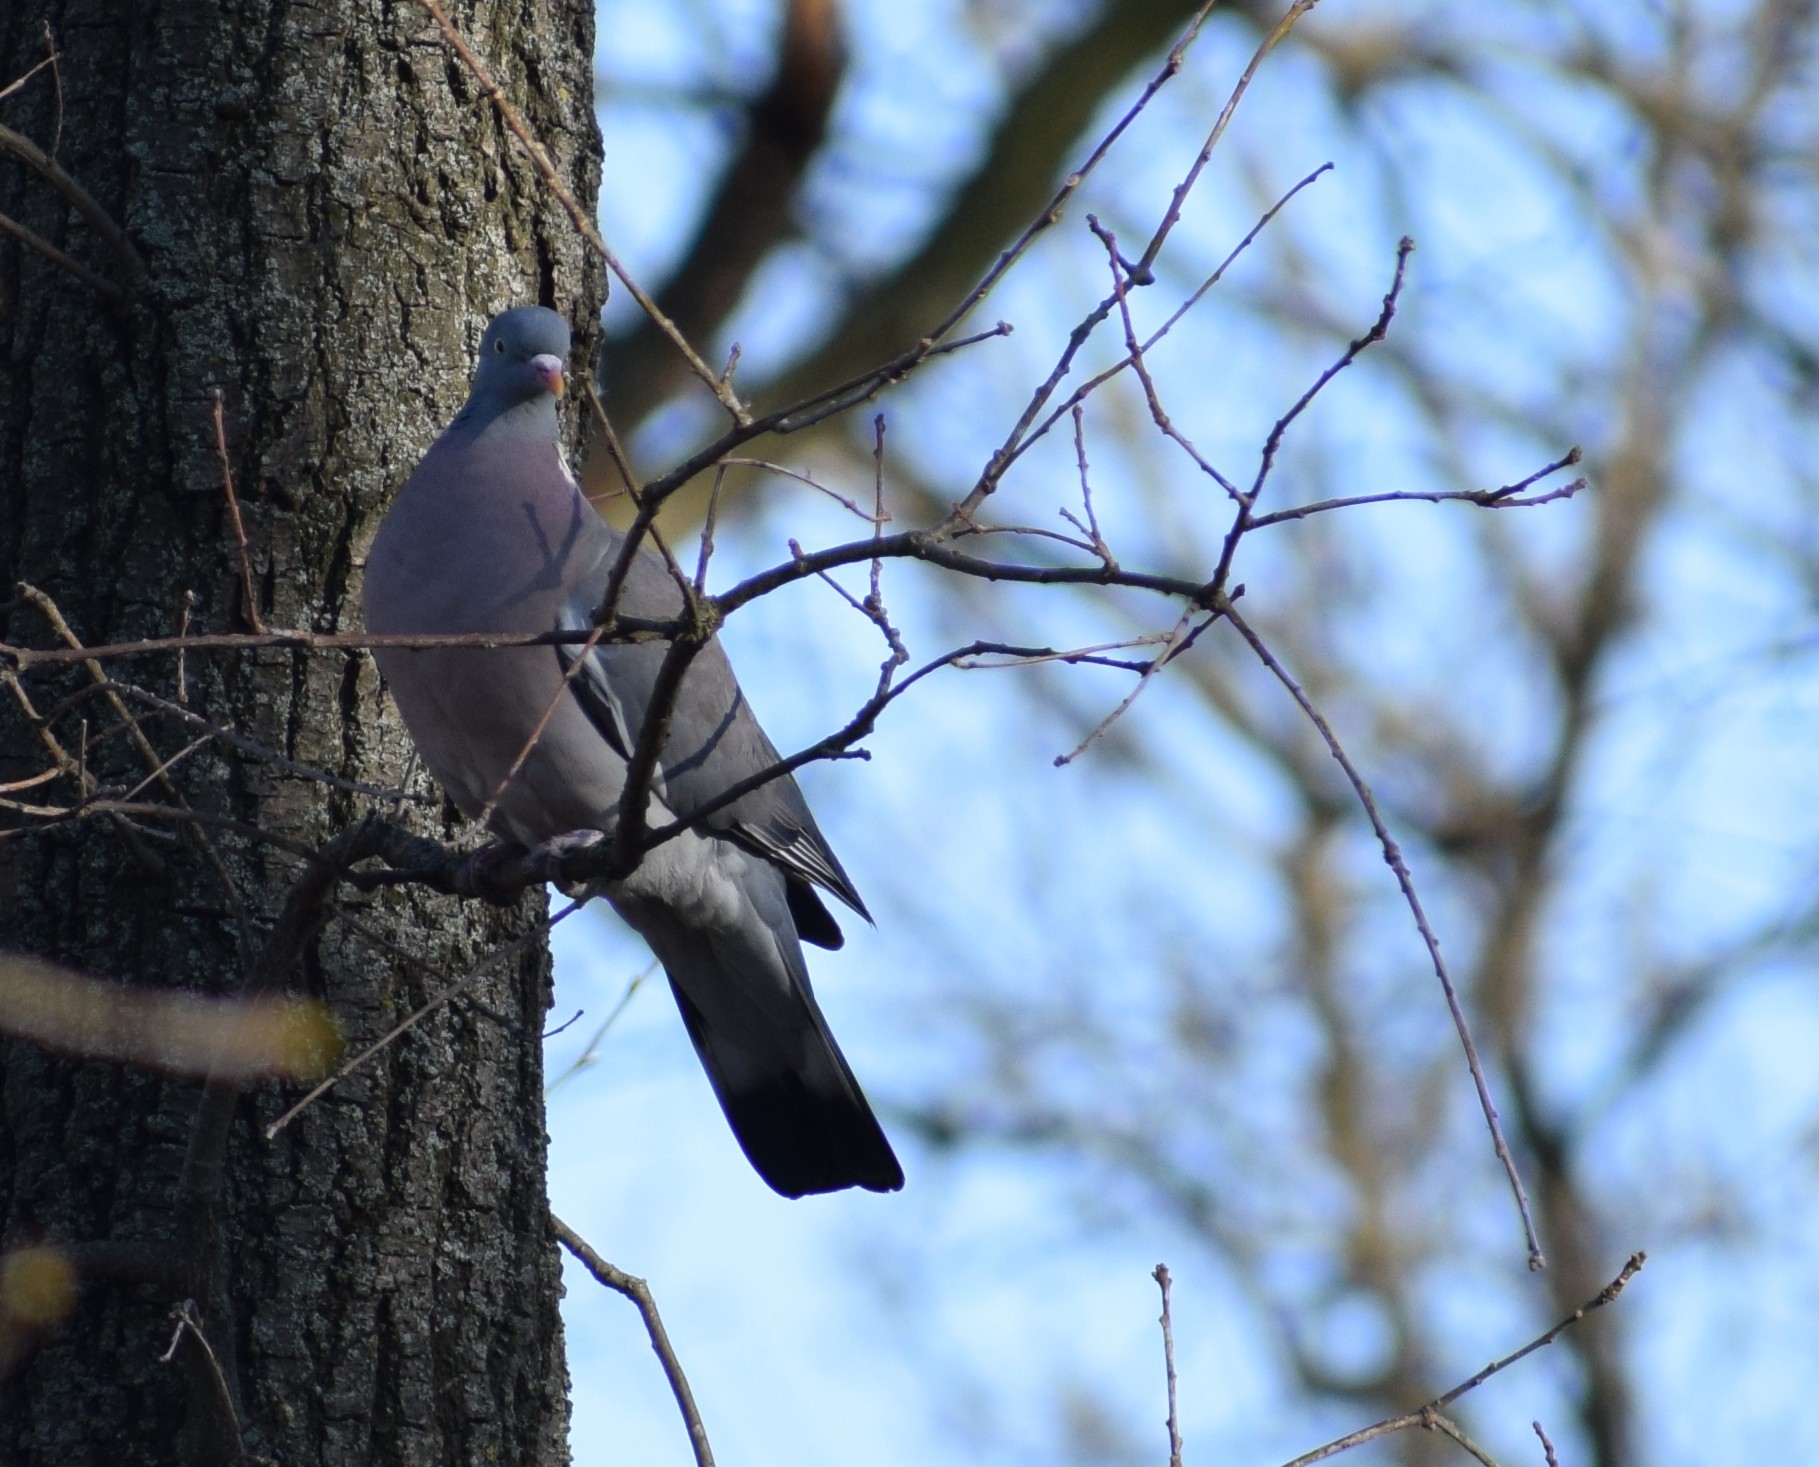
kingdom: Animalia
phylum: Chordata
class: Aves
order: Columbiformes
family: Columbidae
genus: Columba
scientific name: Columba palumbus
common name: Common wood pigeon
